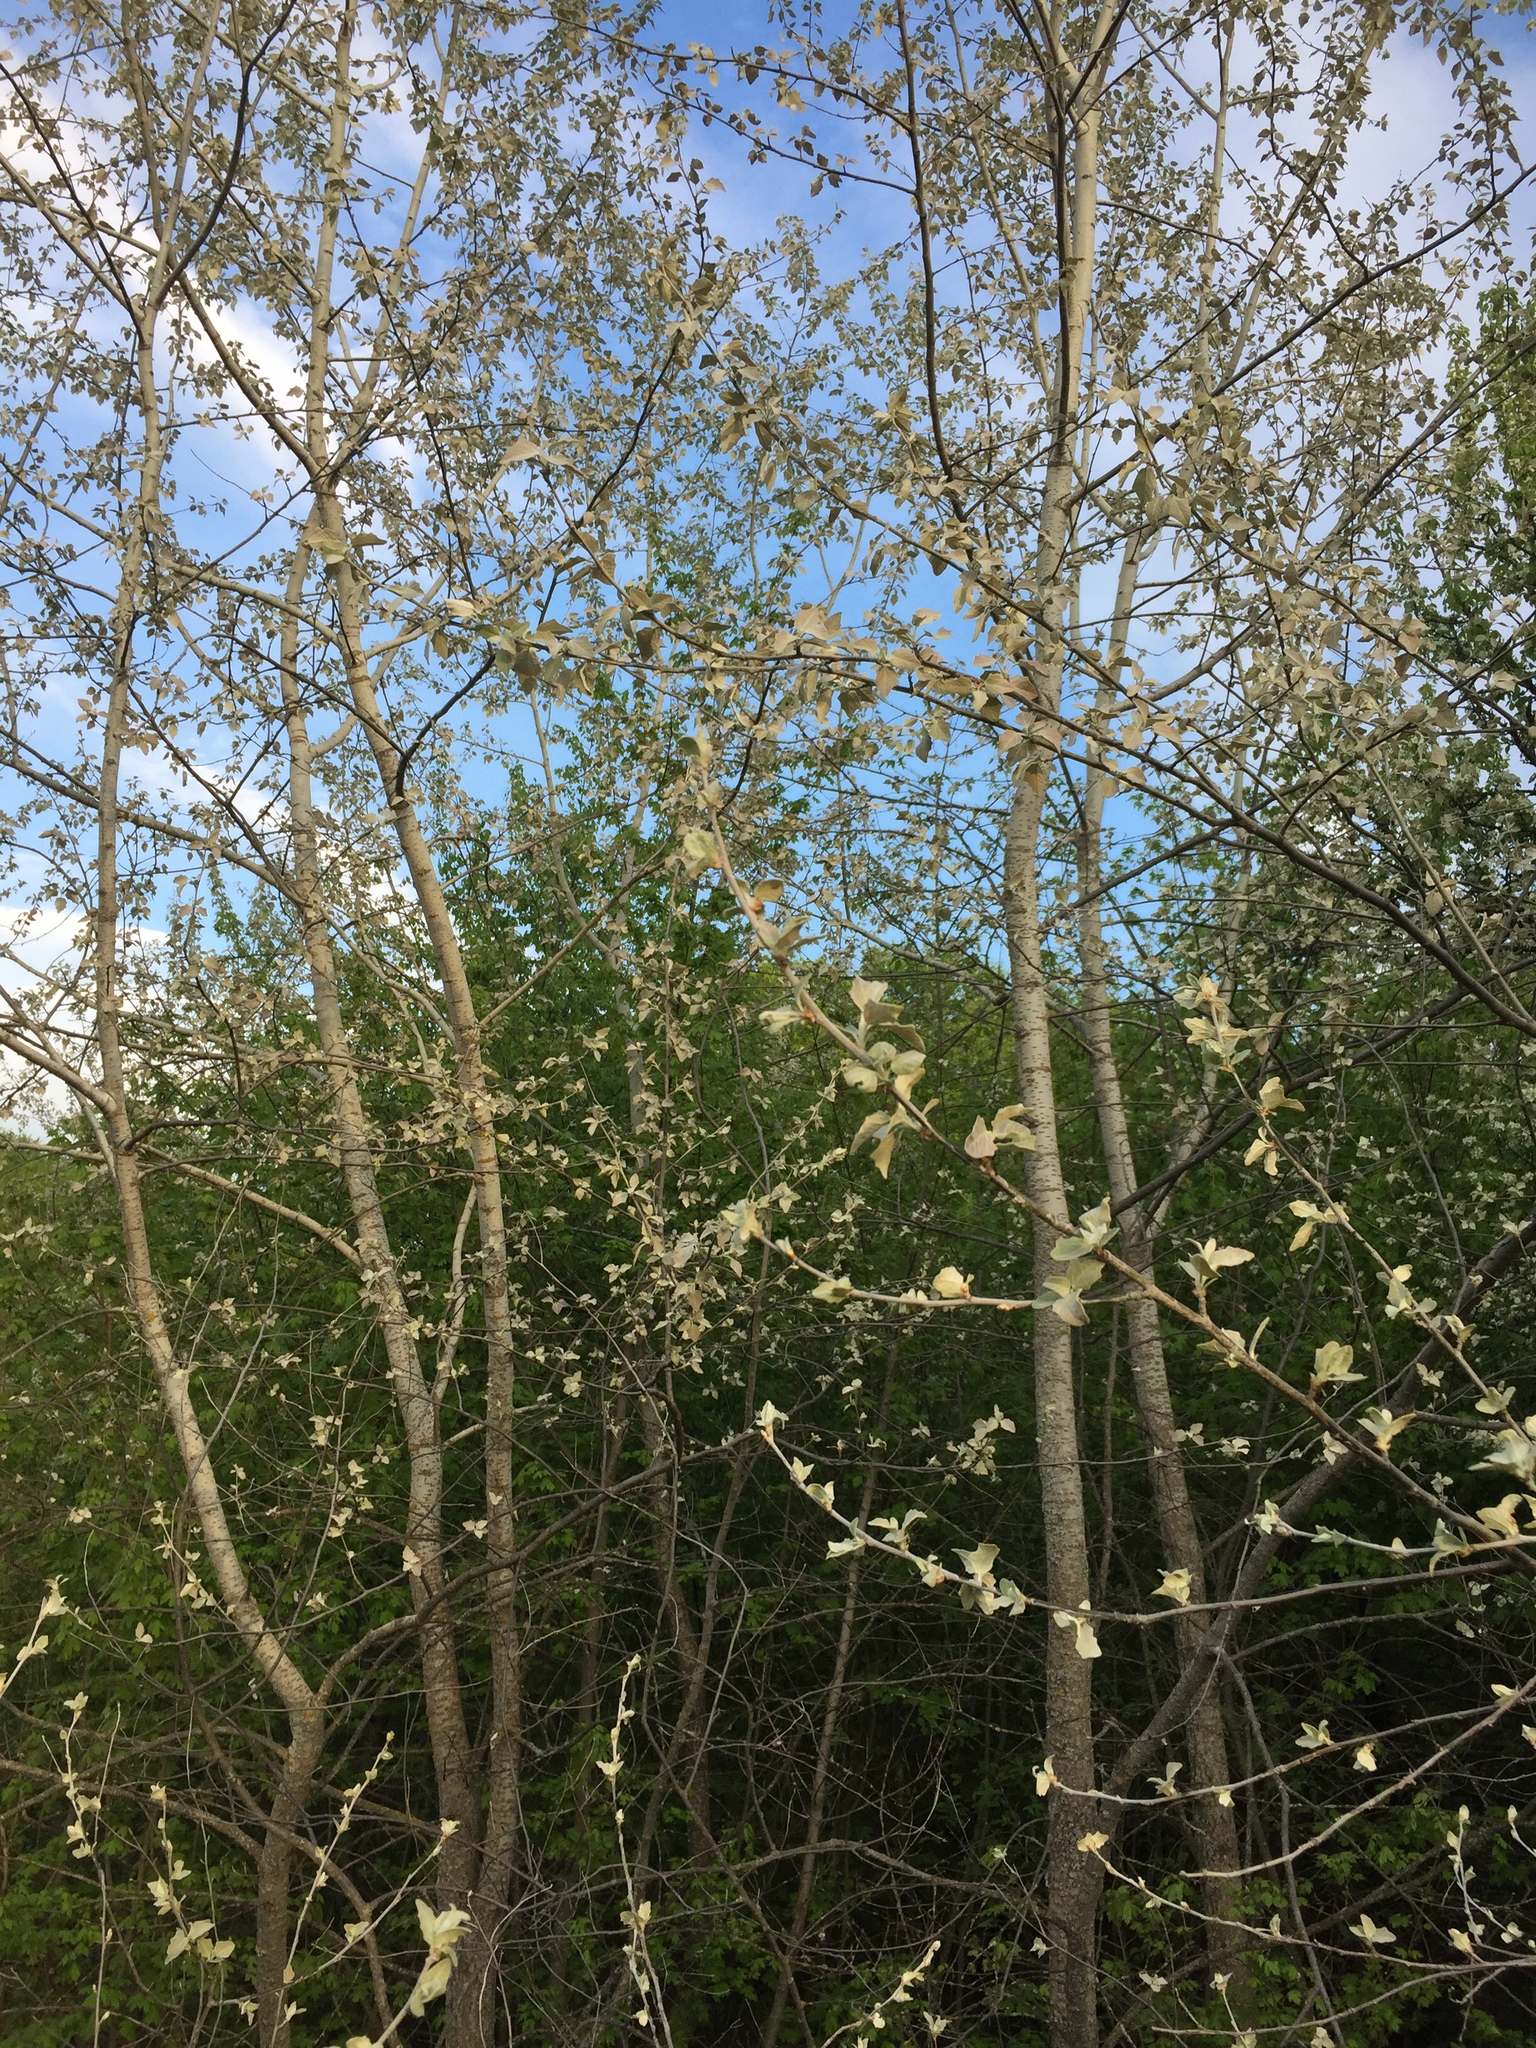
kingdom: Plantae
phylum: Tracheophyta
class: Magnoliopsida
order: Malpighiales
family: Salicaceae
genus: Populus
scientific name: Populus alba
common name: White poplar
